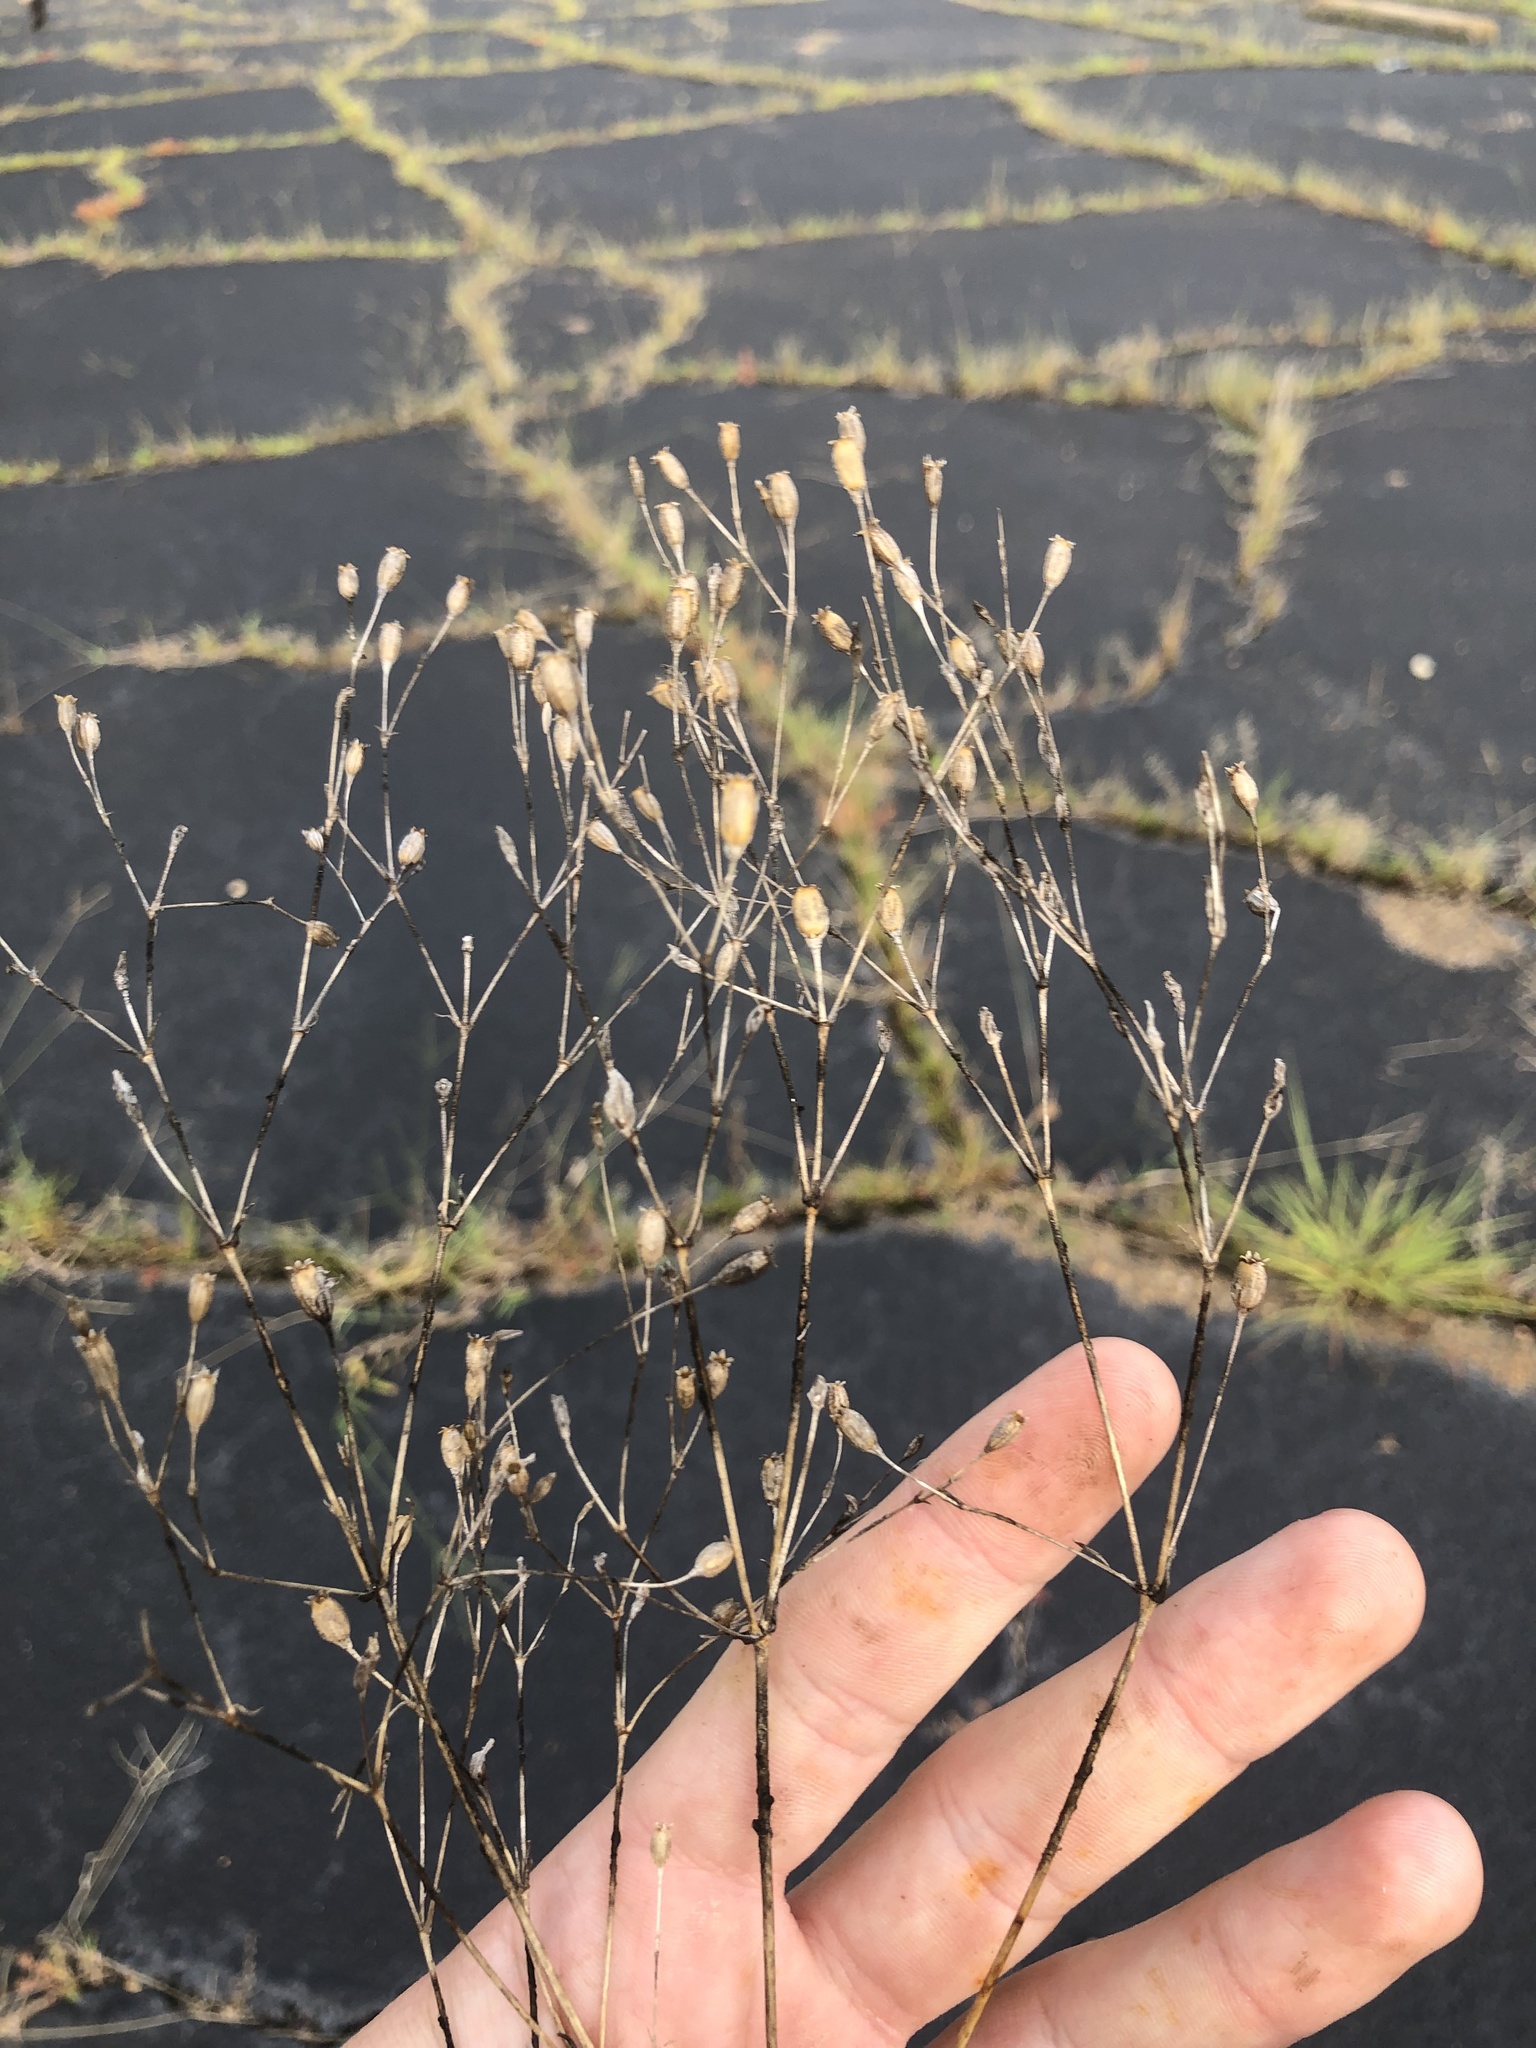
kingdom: Plantae
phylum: Tracheophyta
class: Magnoliopsida
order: Caryophyllales
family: Caryophyllaceae
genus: Silene
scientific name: Silene antirrhina
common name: Sleepy catchfly
